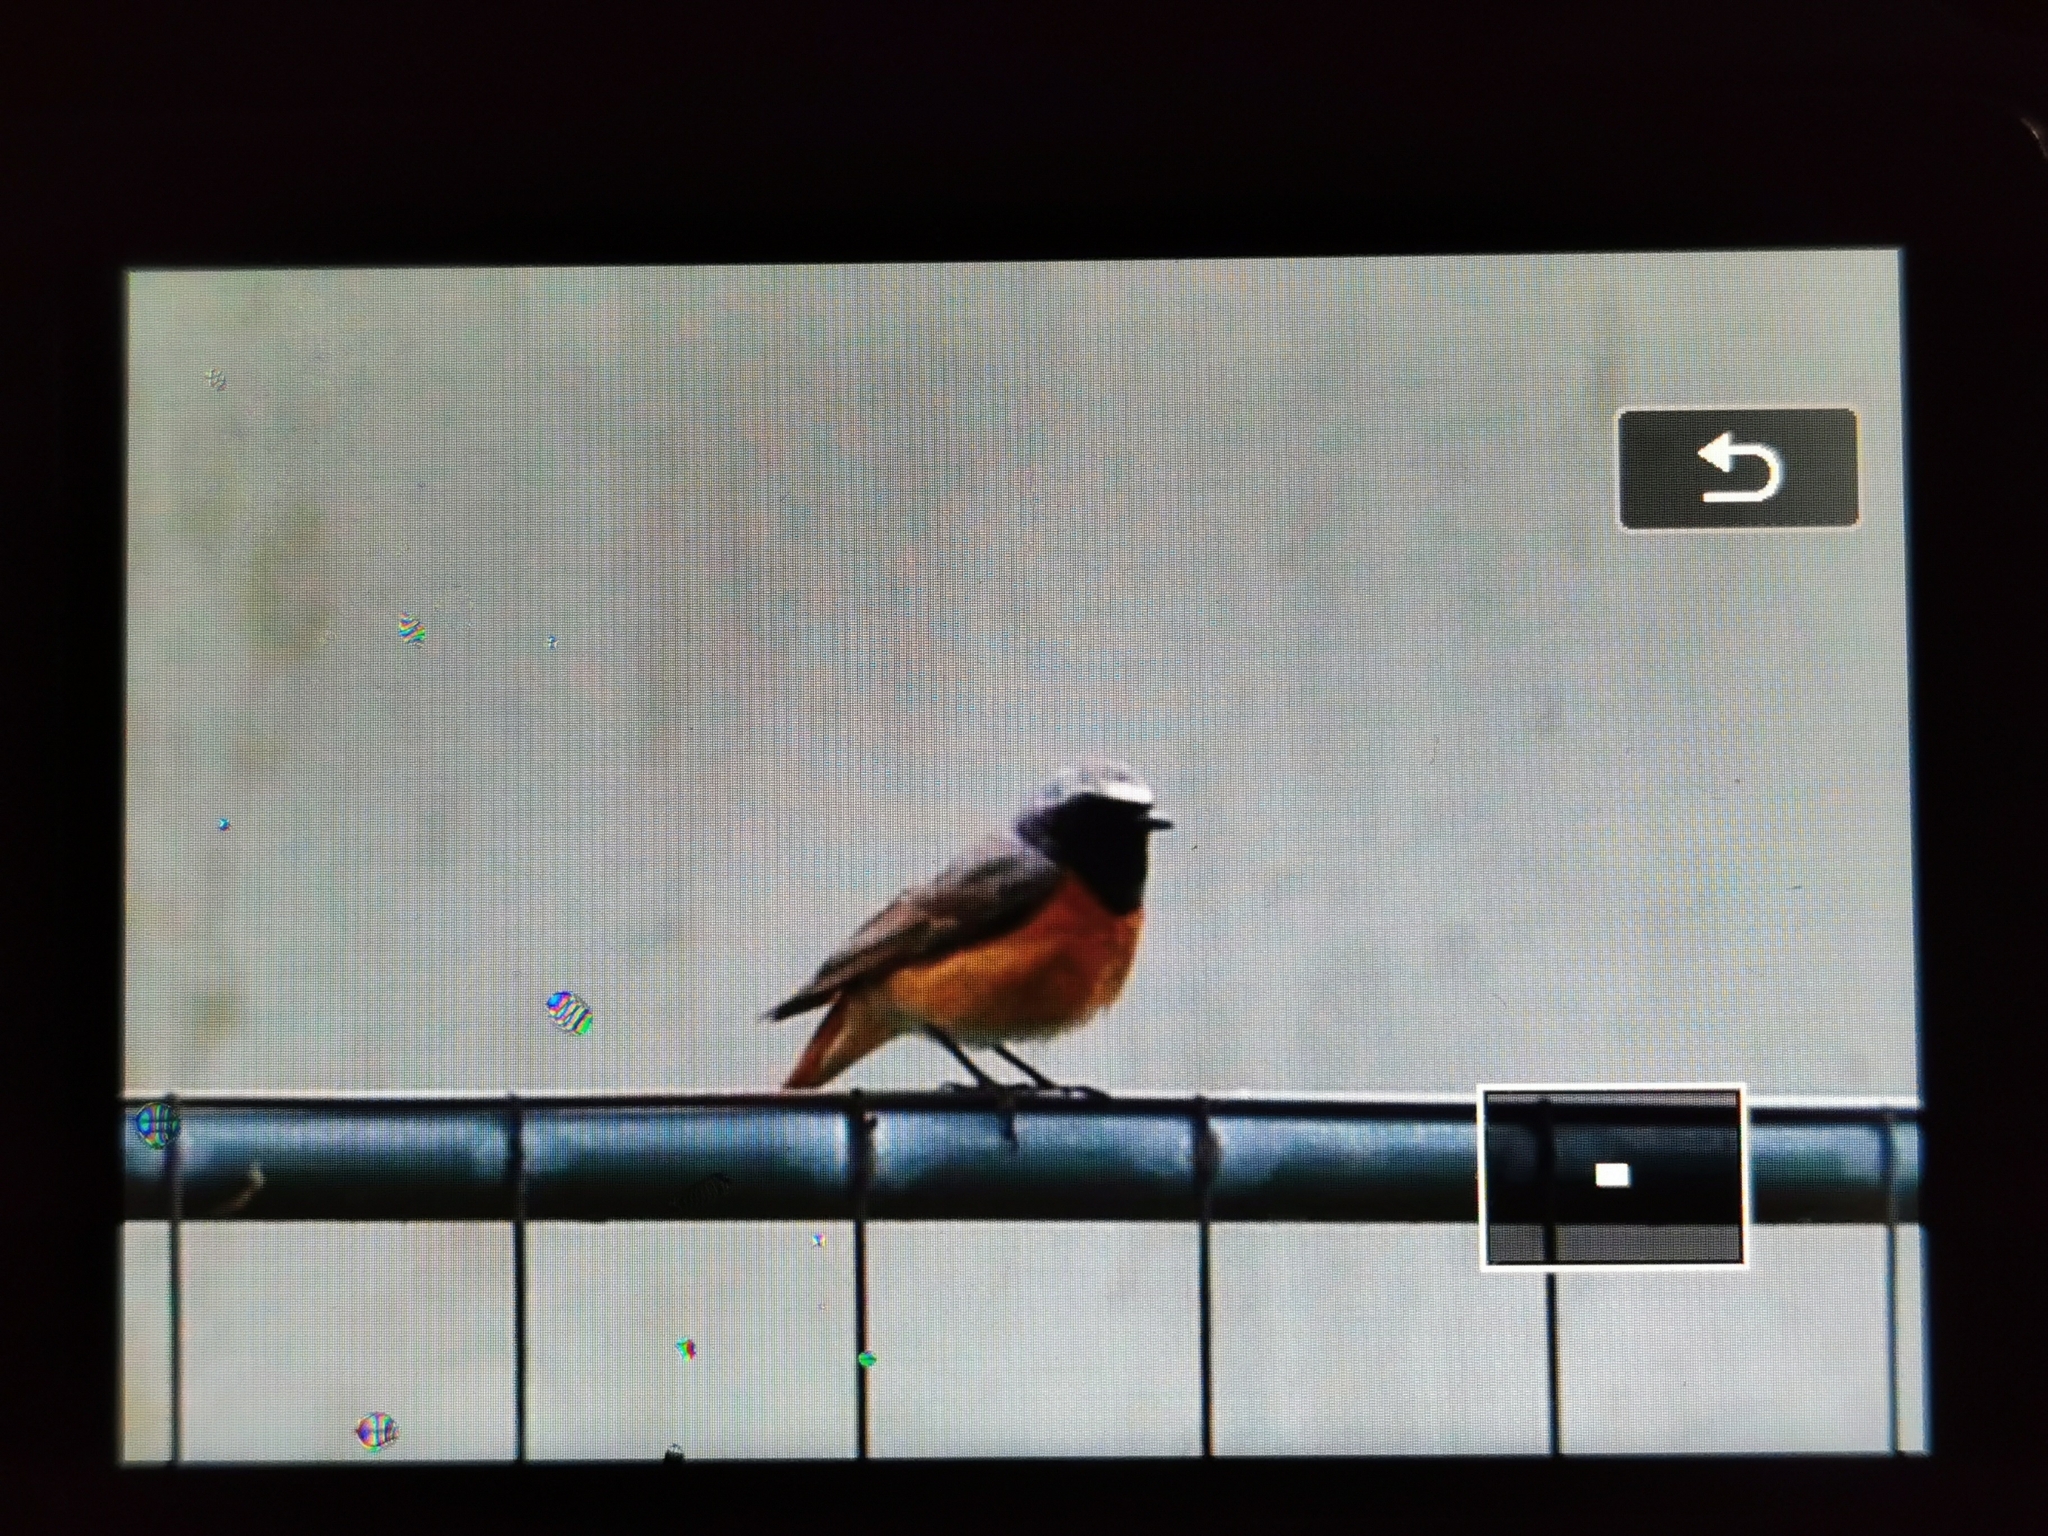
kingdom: Animalia
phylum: Chordata
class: Aves
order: Passeriformes
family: Muscicapidae
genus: Phoenicurus
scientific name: Phoenicurus phoenicurus
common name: Common redstart
